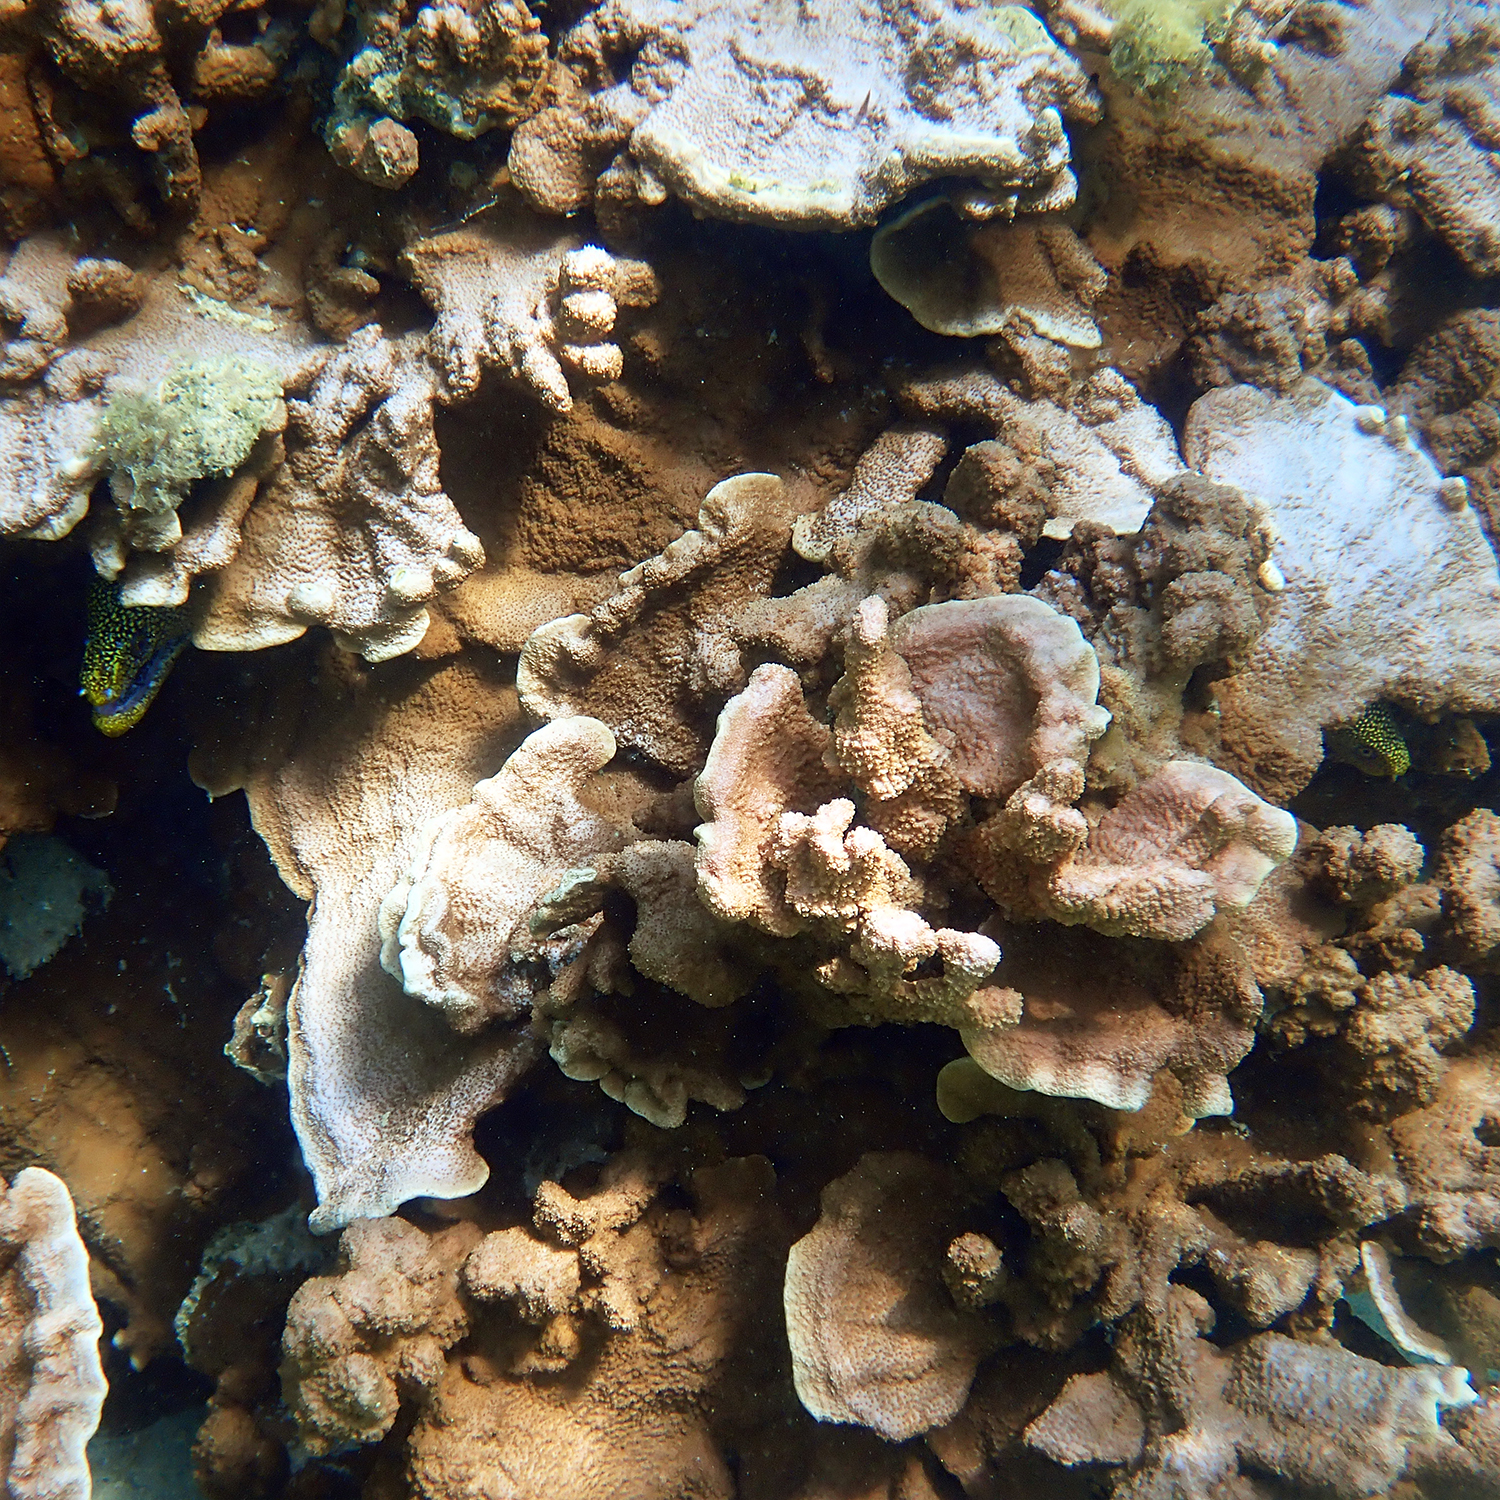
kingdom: Animalia
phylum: Chordata
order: Anguilliformes
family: Muraenidae
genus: Gymnothorax
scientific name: Gymnothorax eurostus
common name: Stout moray
